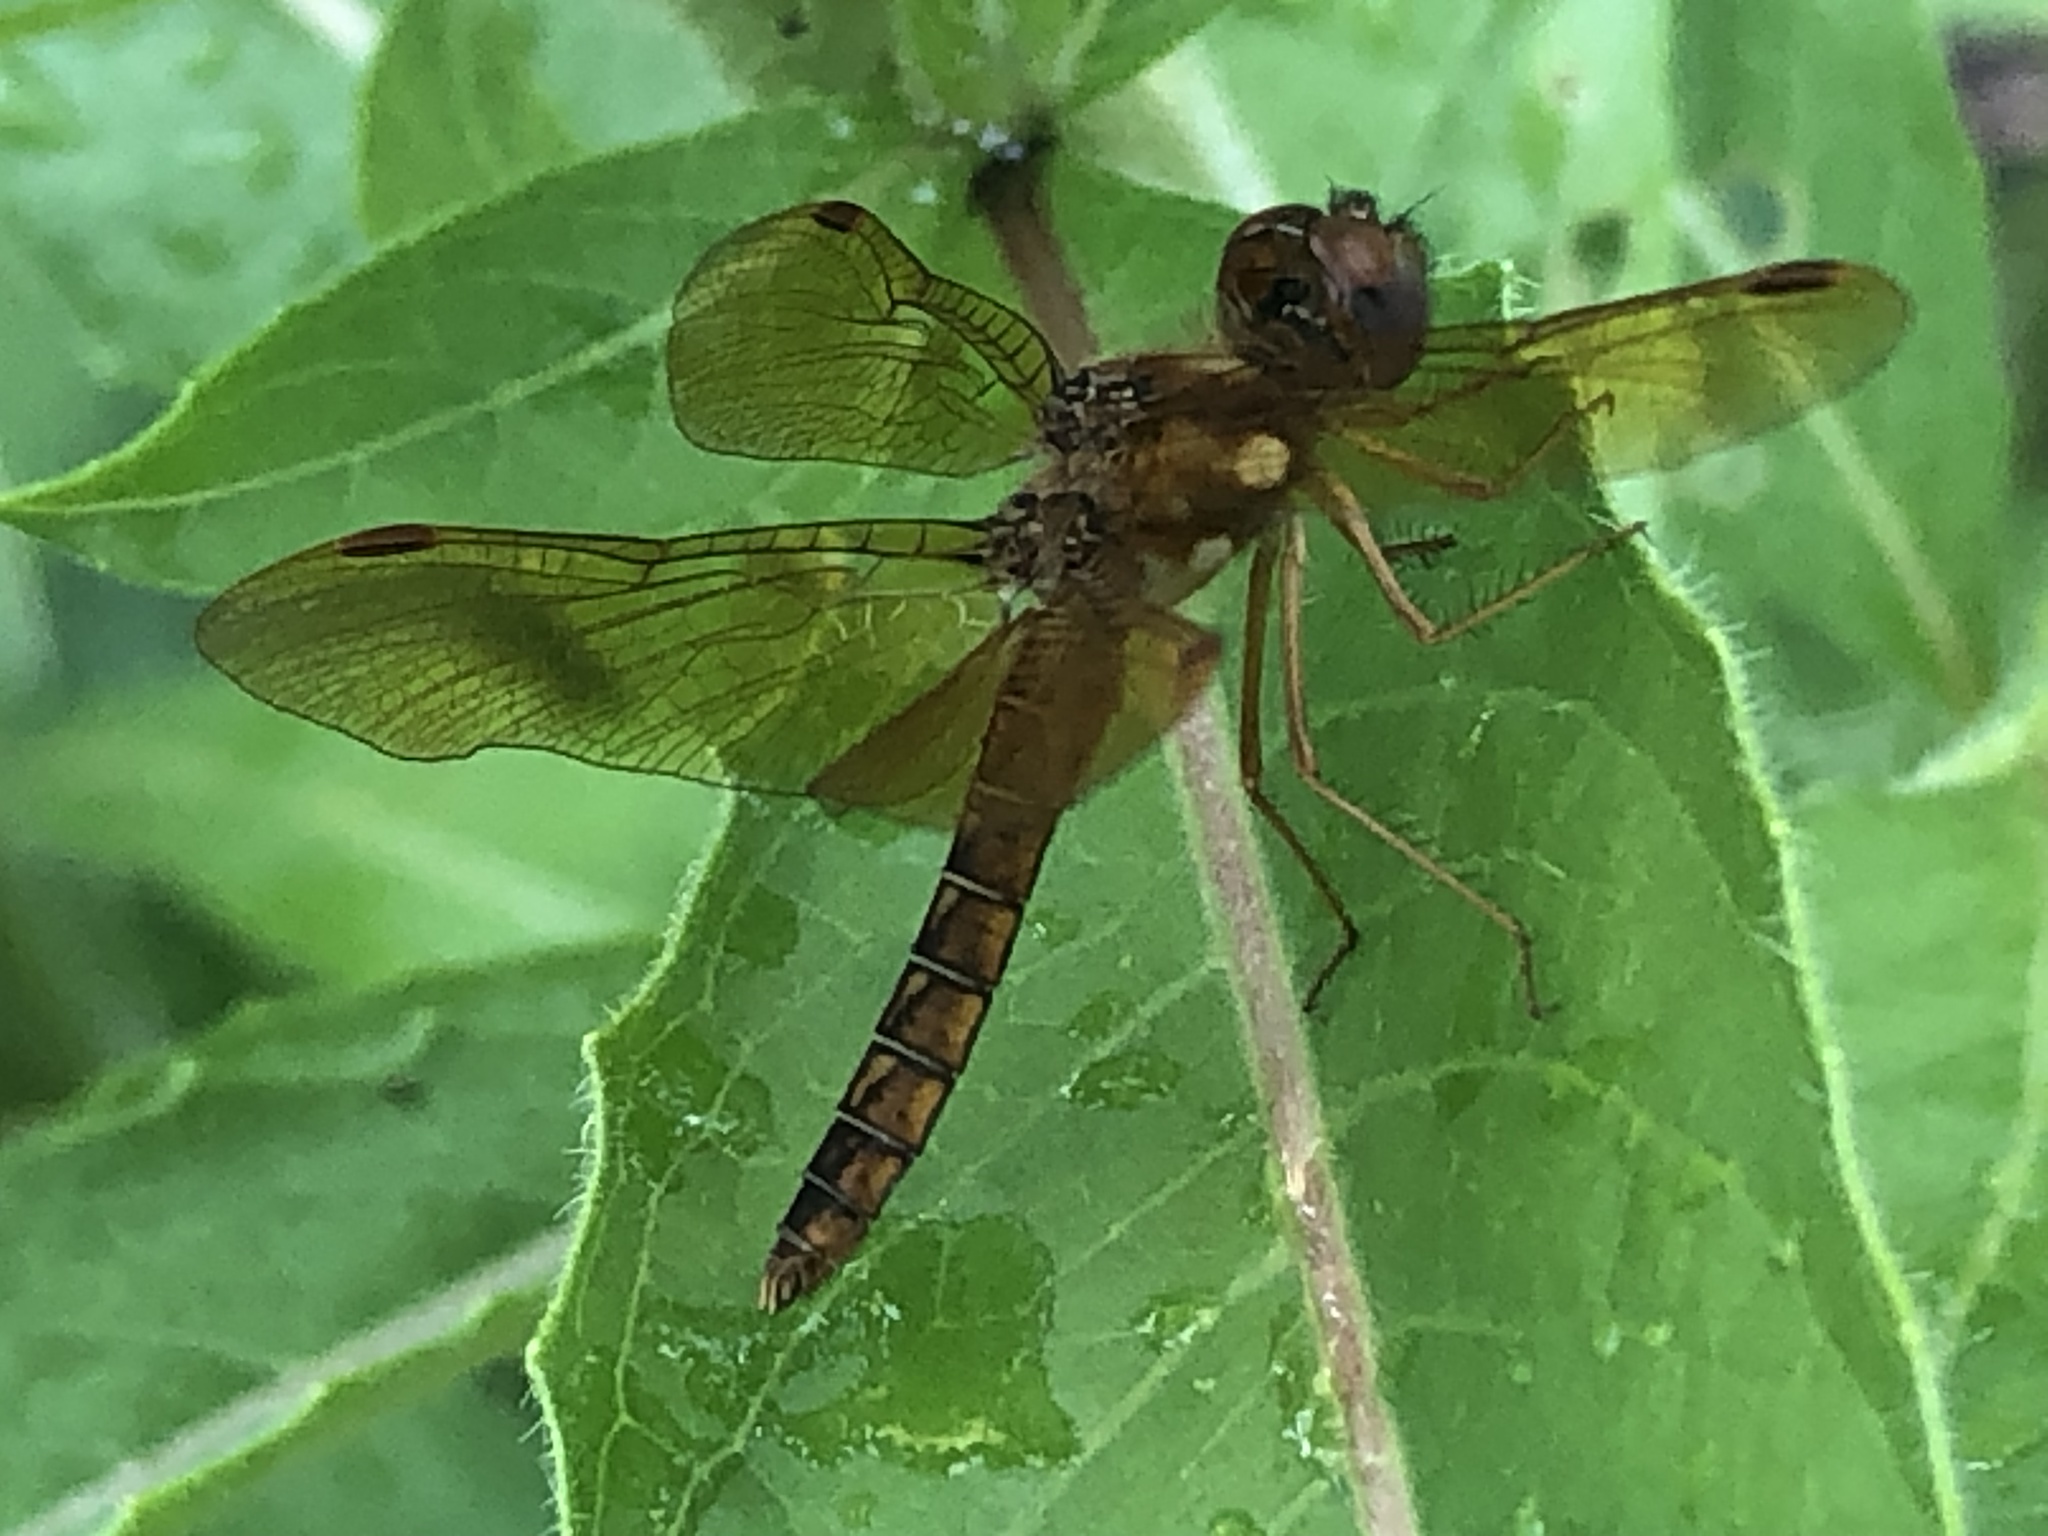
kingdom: Animalia
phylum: Arthropoda
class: Insecta
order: Odonata
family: Libellulidae
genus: Perithemis
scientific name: Perithemis tenera
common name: Eastern amberwing
